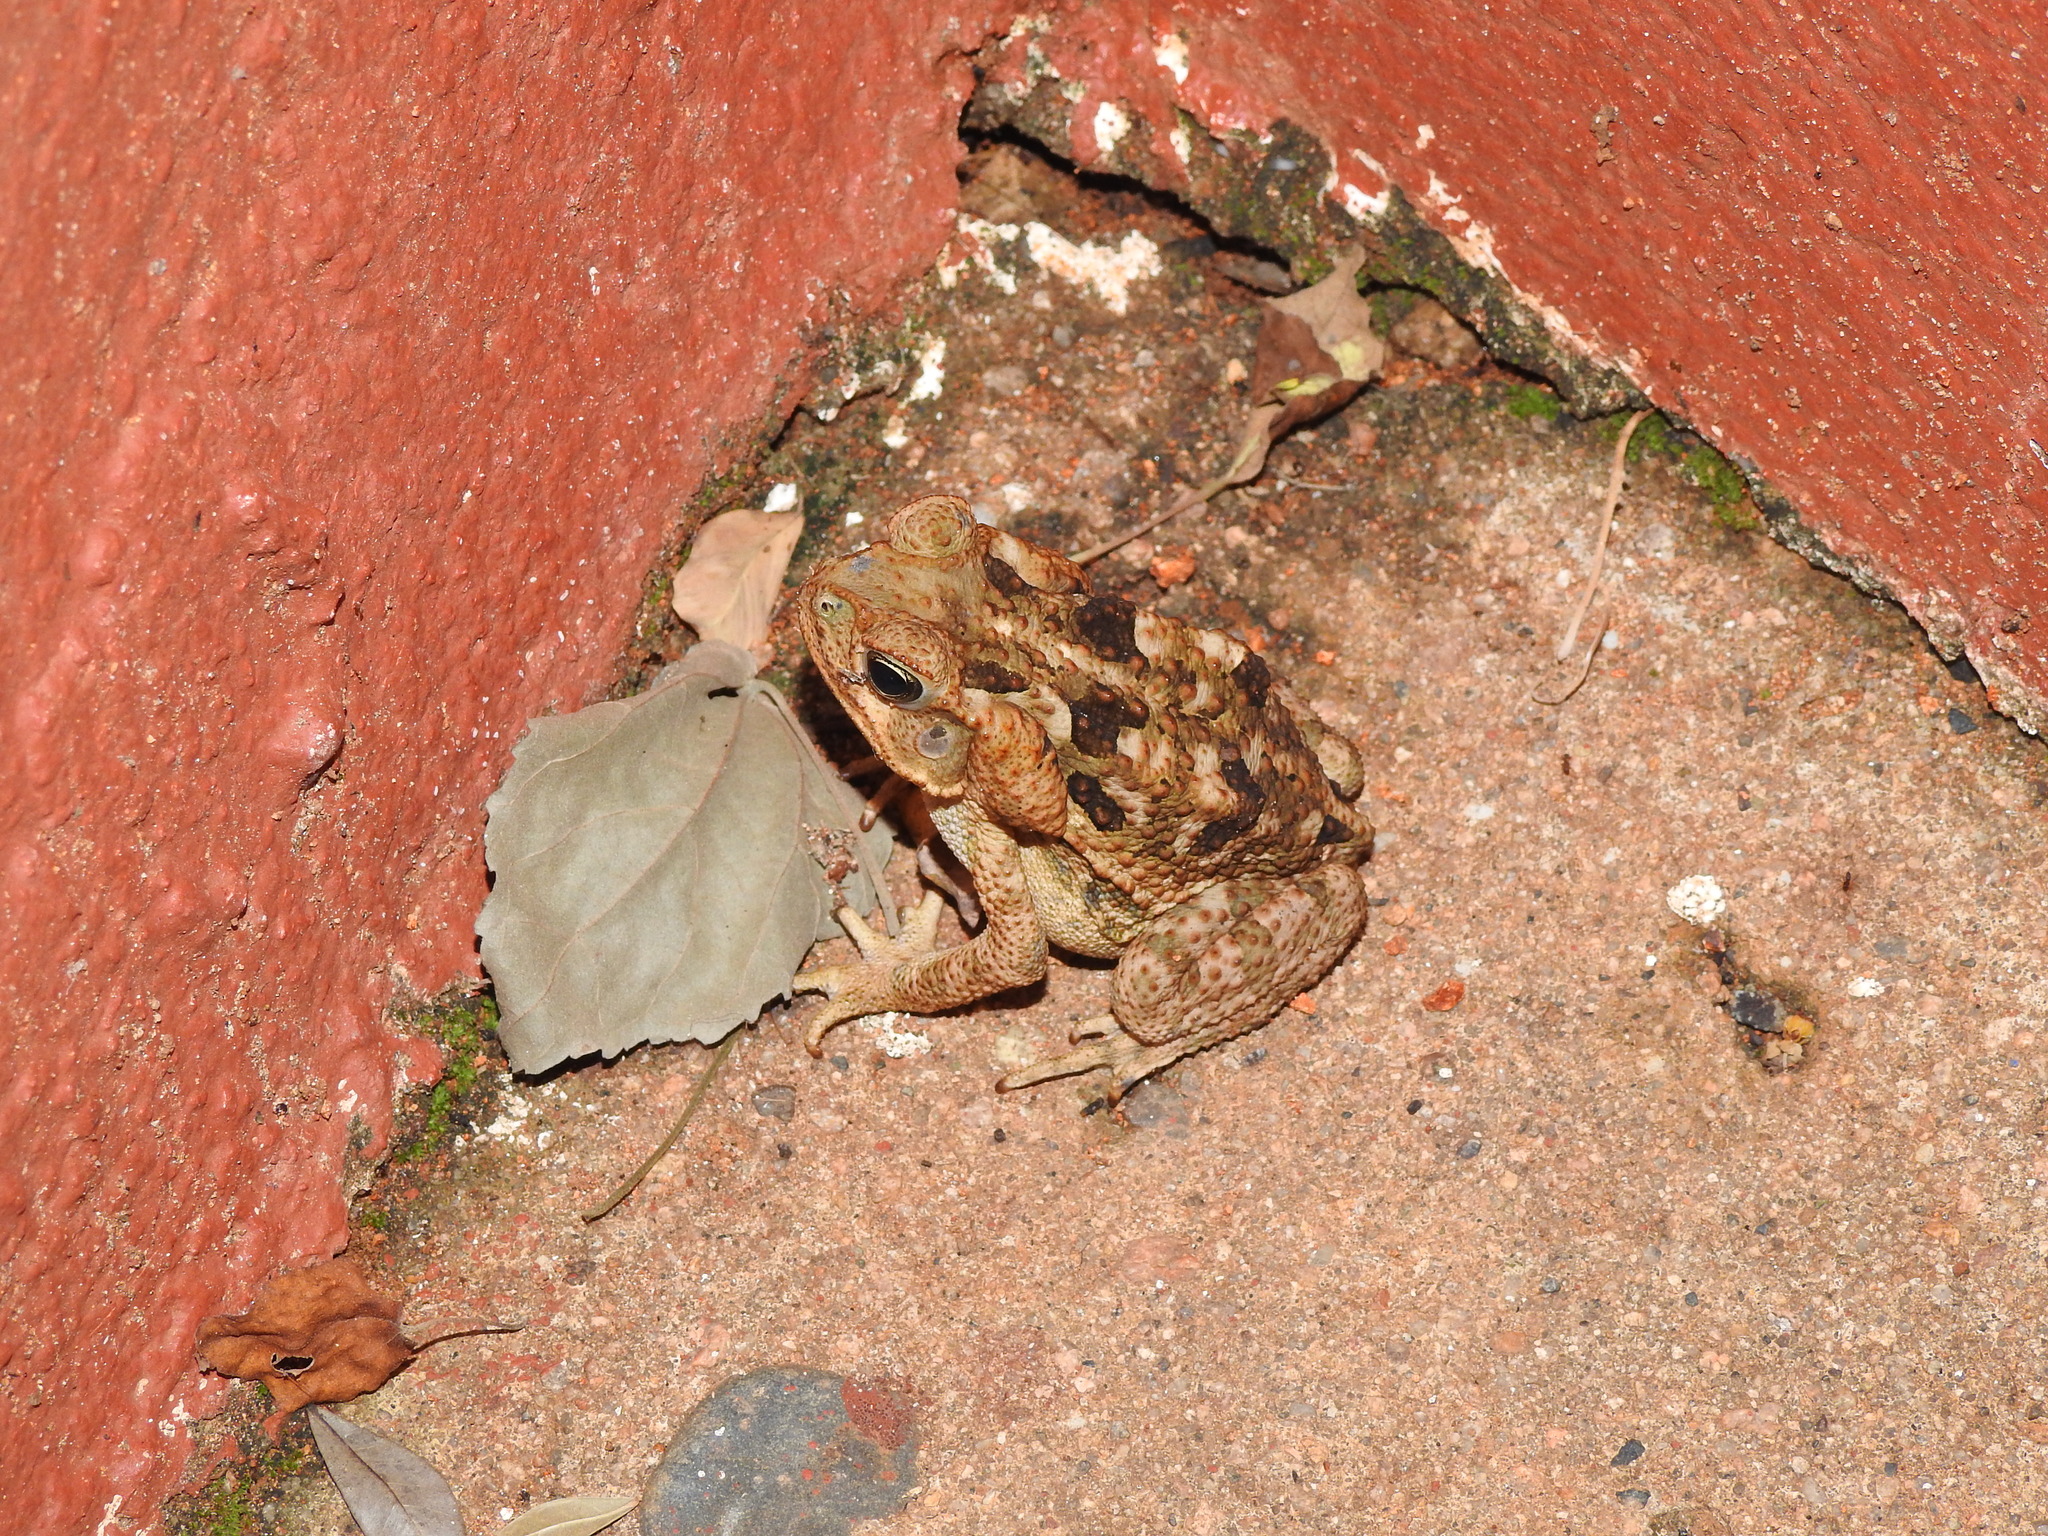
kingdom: Animalia
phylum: Chordata
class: Amphibia
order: Anura
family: Bufonidae
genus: Rhinella
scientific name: Rhinella horribilis
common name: Mesoamerican cane toad
